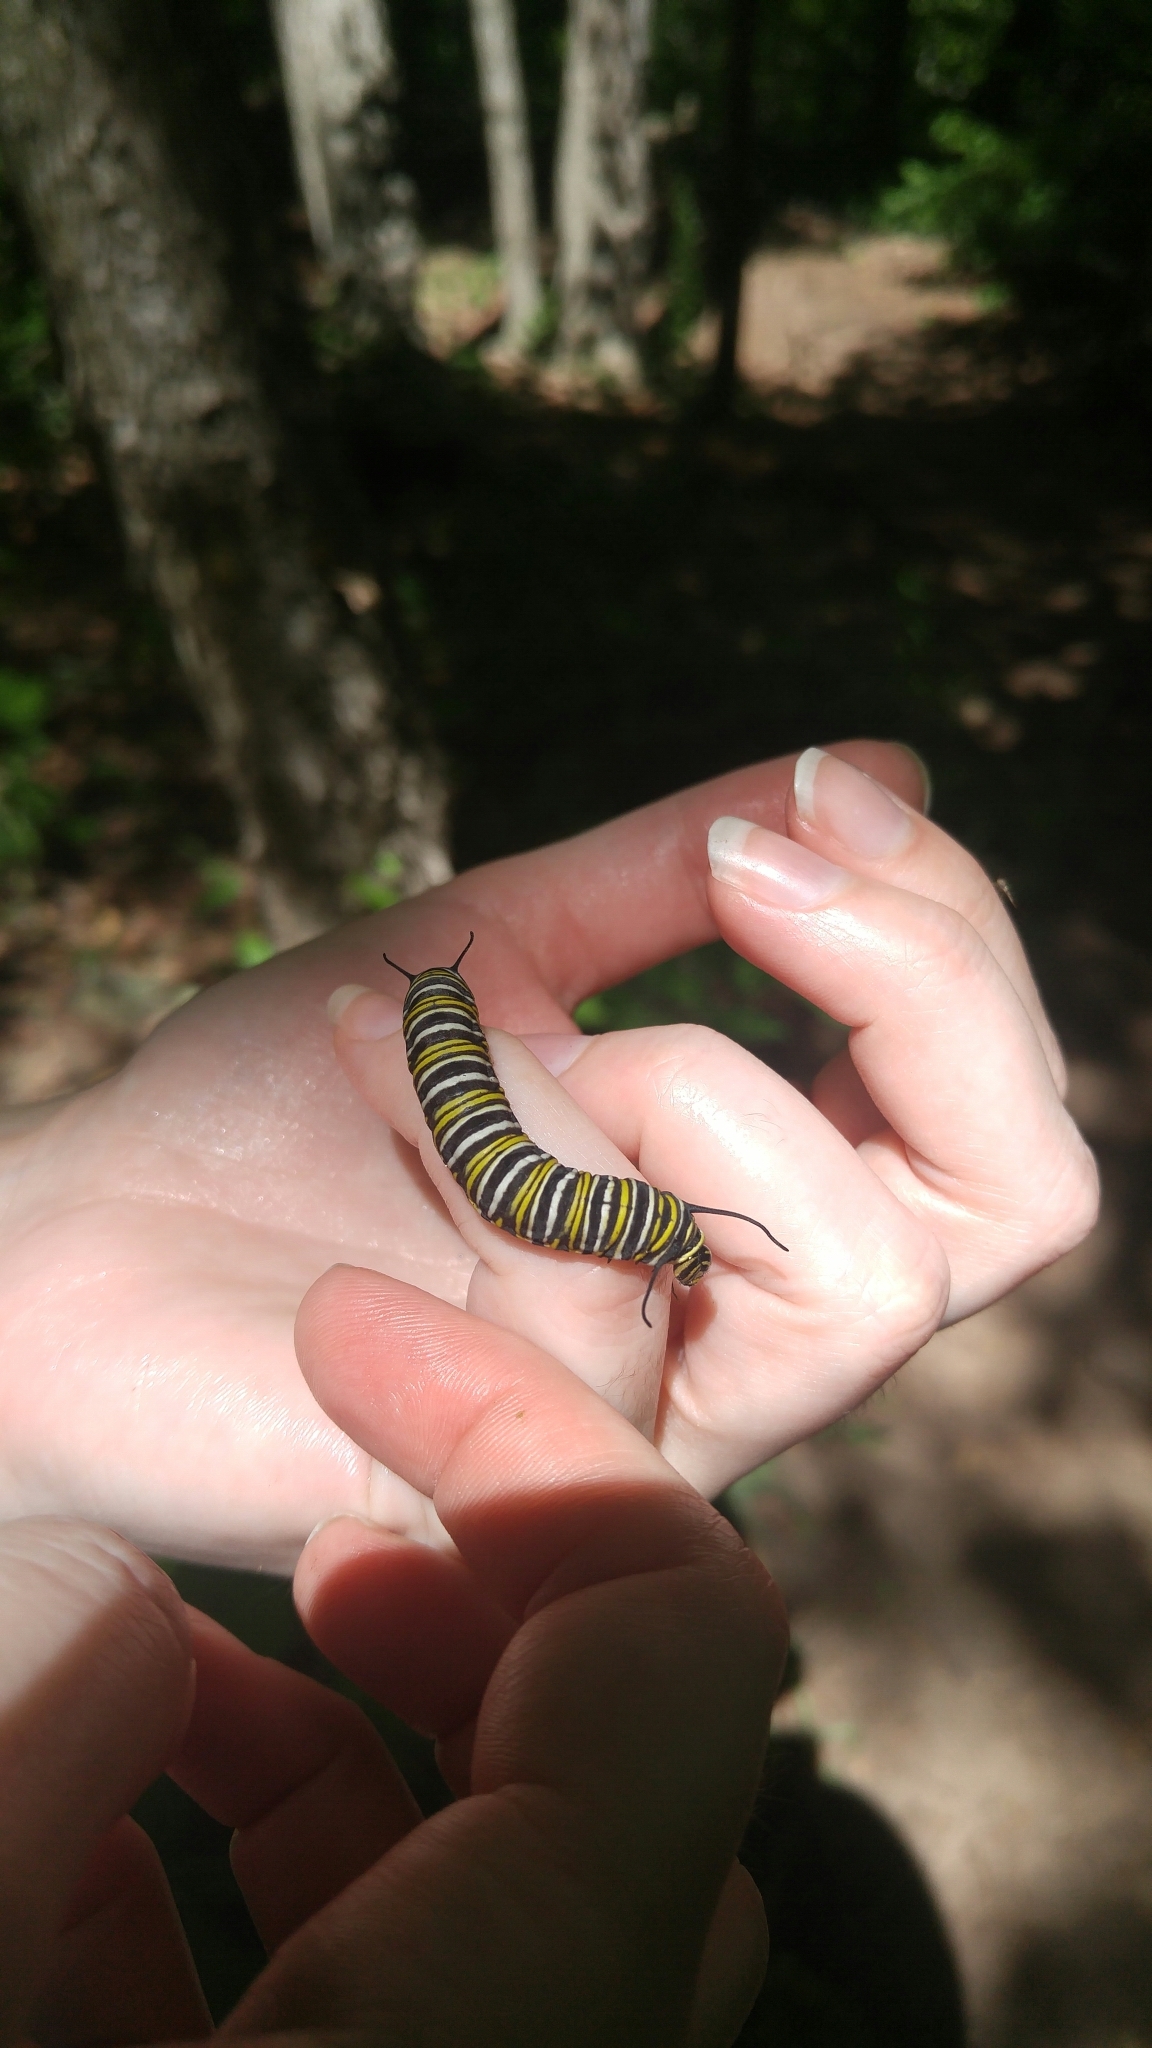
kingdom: Animalia
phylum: Arthropoda
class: Insecta
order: Lepidoptera
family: Nymphalidae
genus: Danaus
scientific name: Danaus plexippus
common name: Monarch
